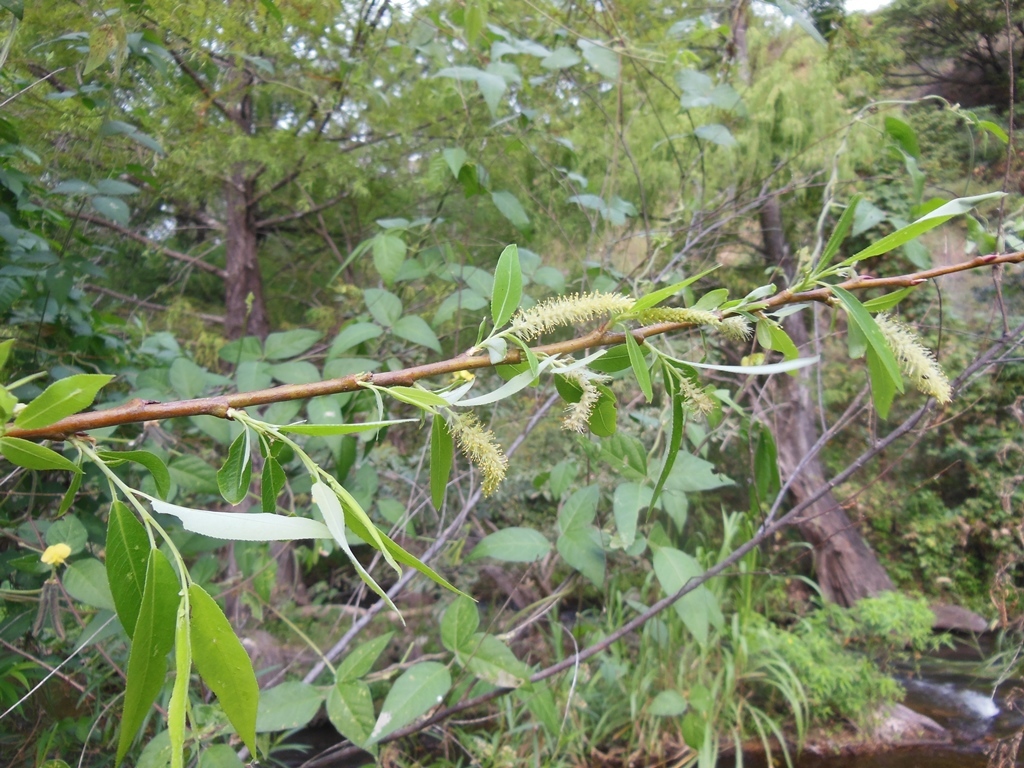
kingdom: Plantae
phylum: Tracheophyta
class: Magnoliopsida
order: Malpighiales
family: Salicaceae
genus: Salix
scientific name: Salix bonplandiana
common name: Bonpland’s willow
